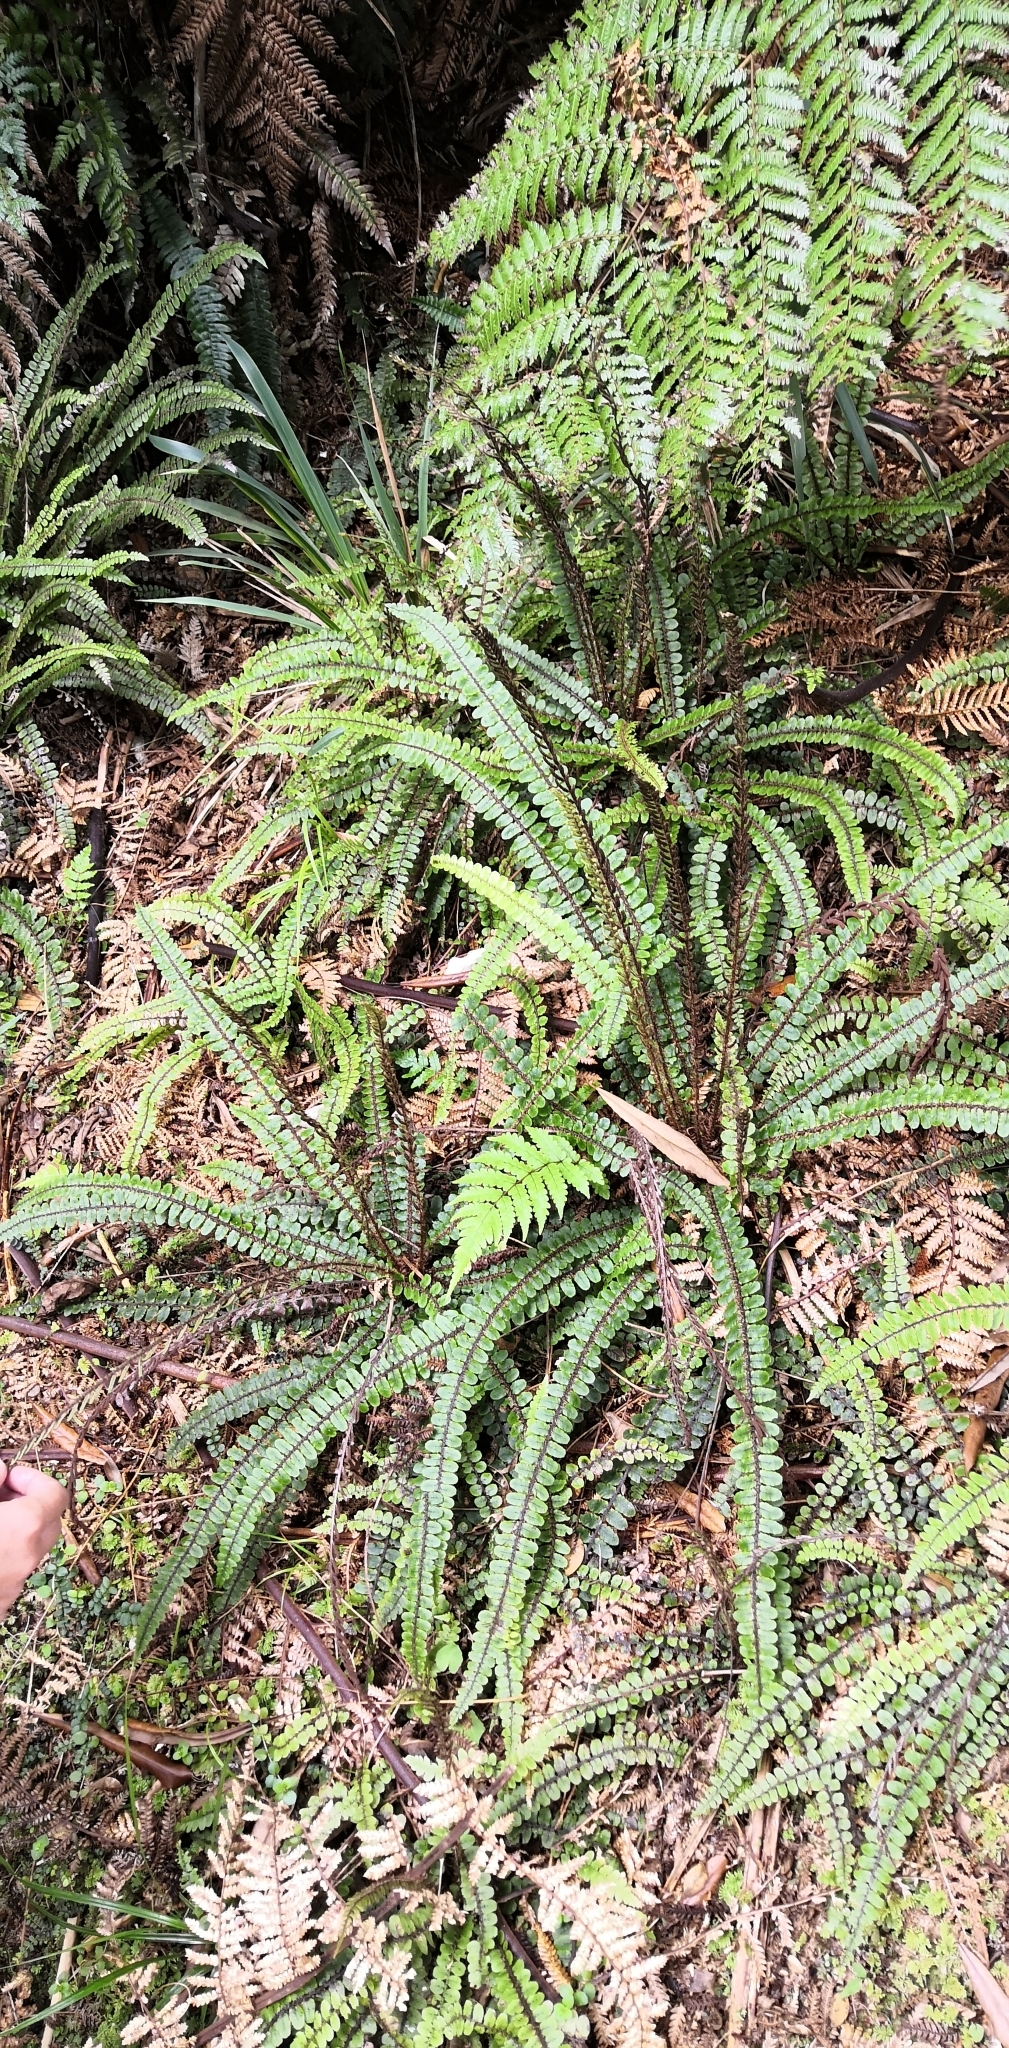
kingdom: Plantae
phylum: Tracheophyta
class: Polypodiopsida
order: Polypodiales
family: Blechnaceae
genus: Cranfillia
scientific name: Cranfillia fluviatilis
